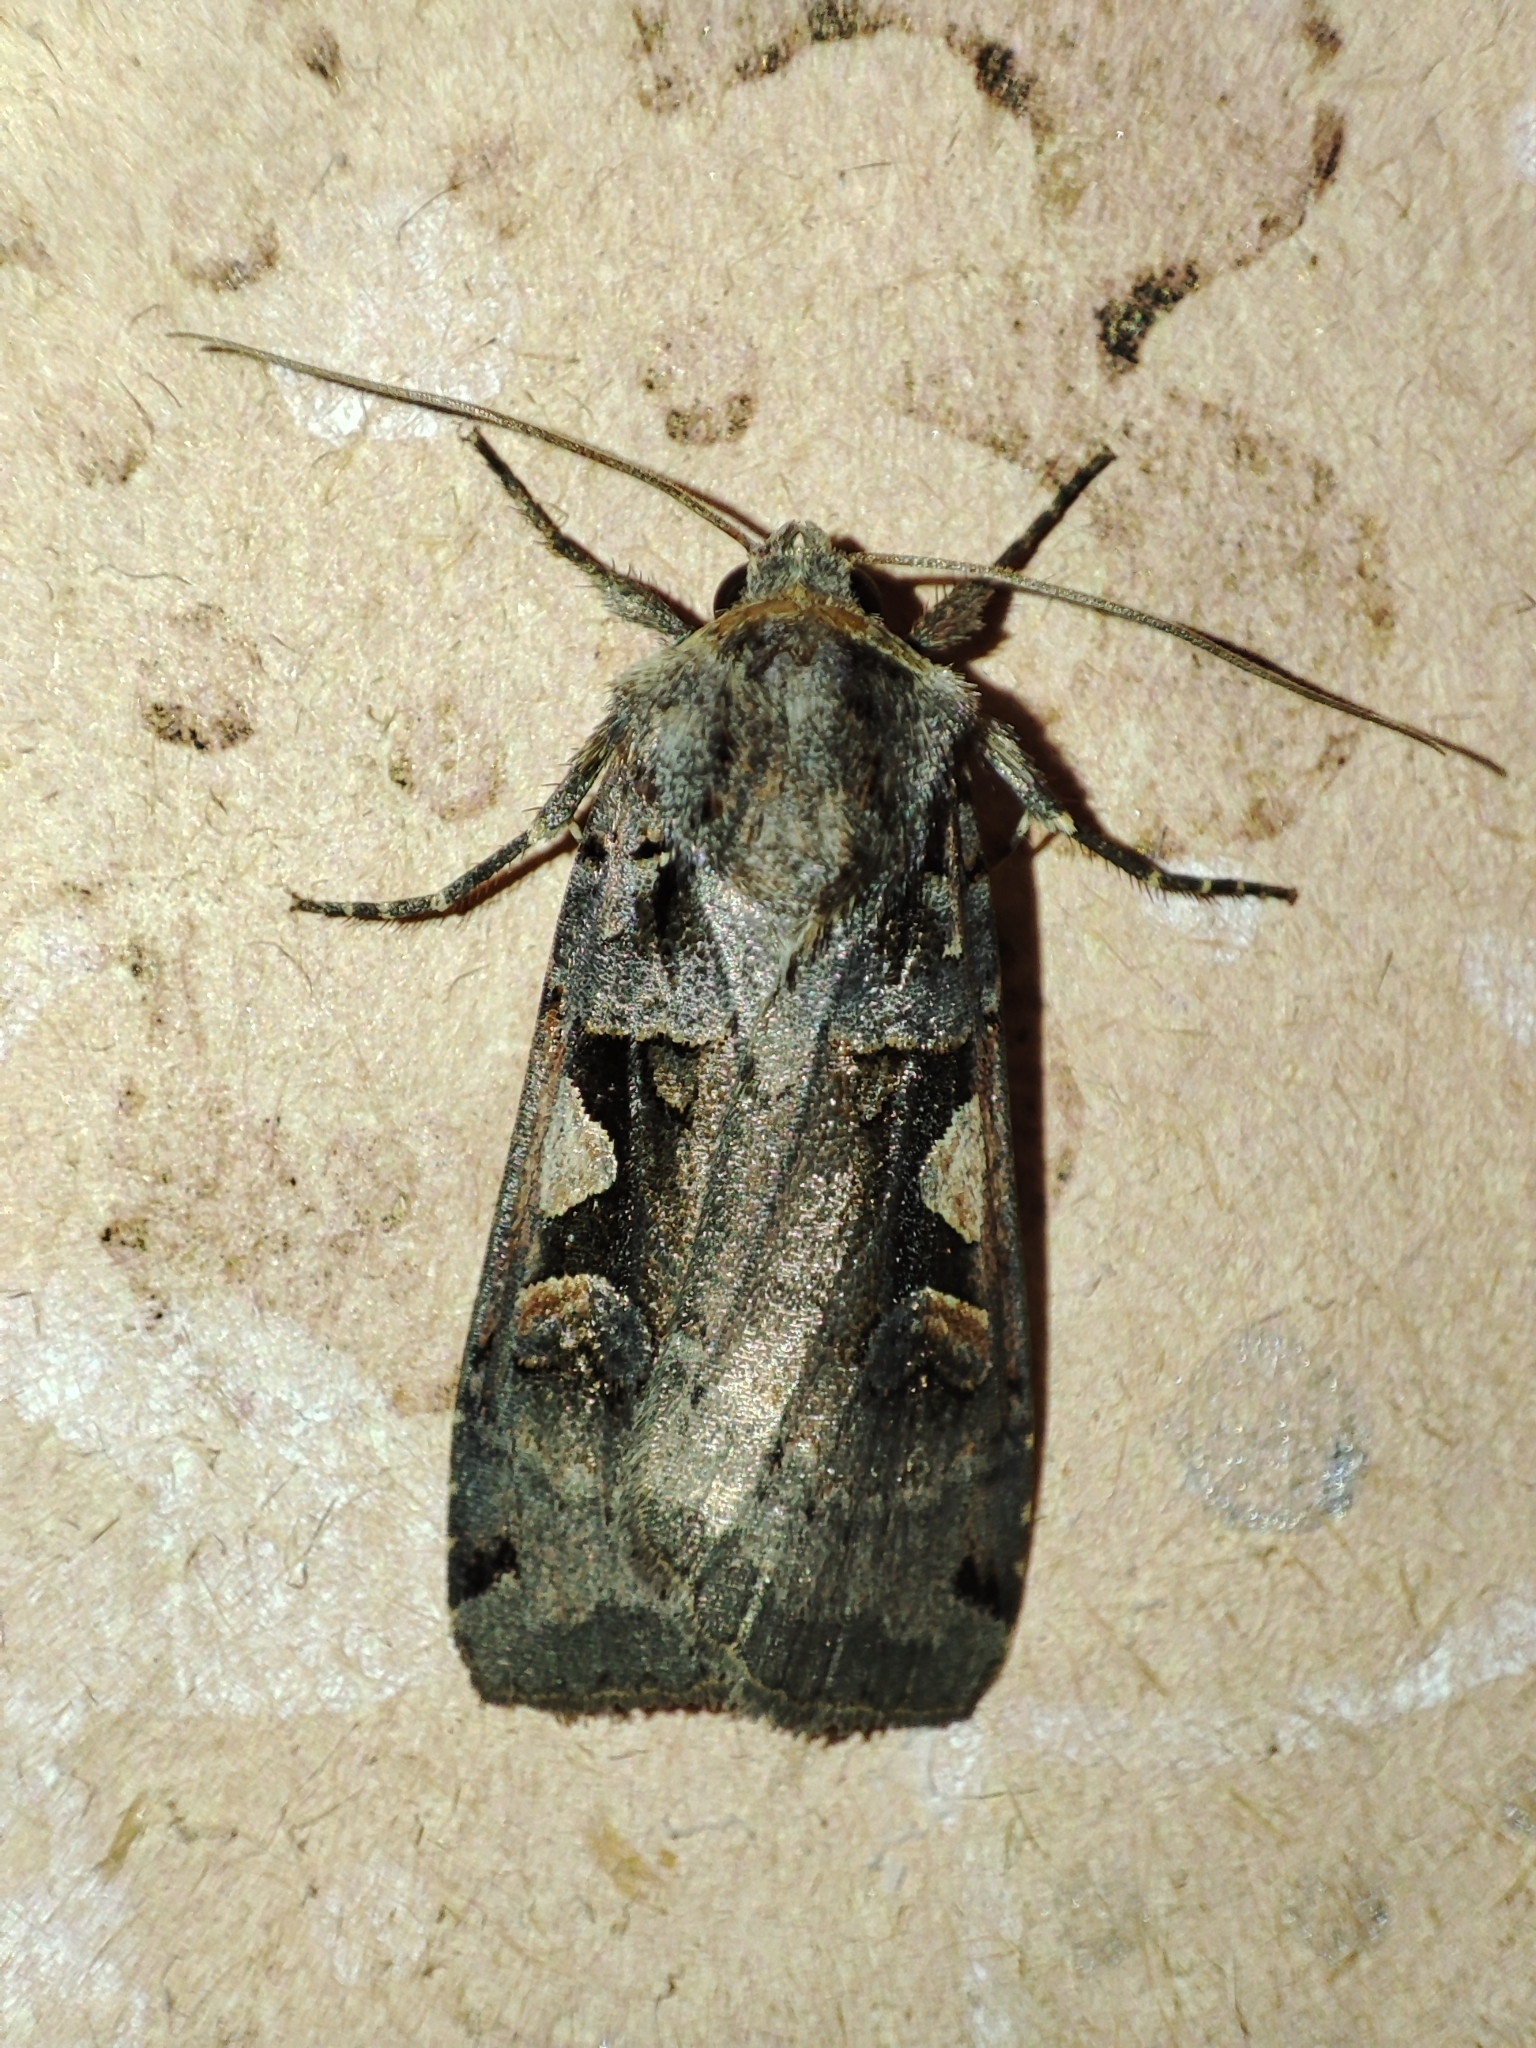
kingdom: Animalia
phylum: Arthropoda
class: Insecta
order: Lepidoptera
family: Noctuidae
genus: Xestia
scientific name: Xestia c-nigrum
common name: Setaceous hebrew character
